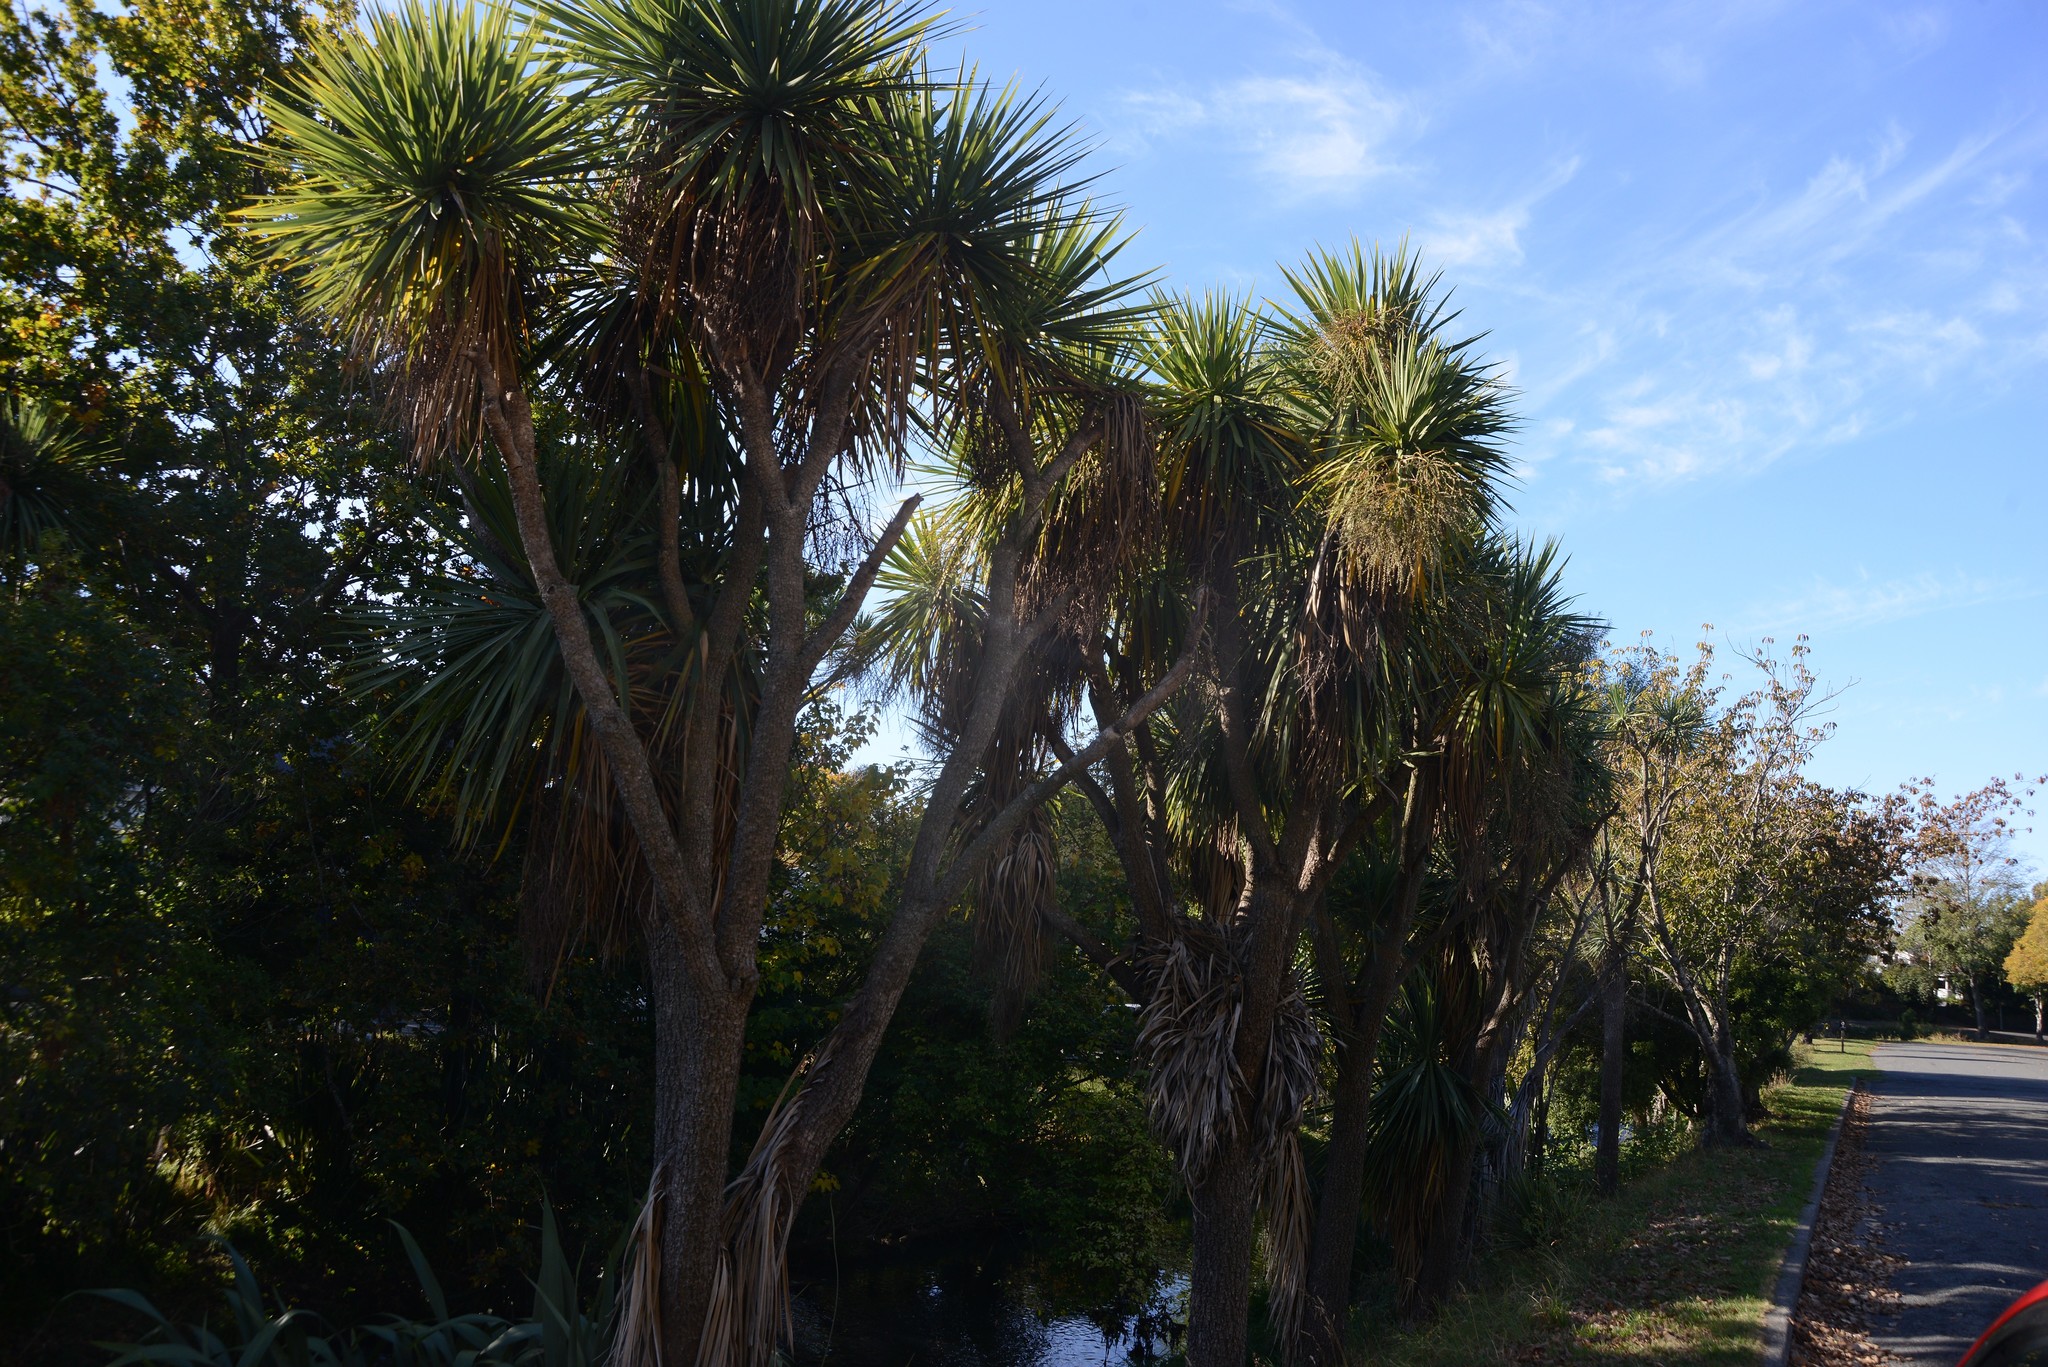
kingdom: Plantae
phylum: Tracheophyta
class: Liliopsida
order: Asparagales
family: Asparagaceae
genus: Cordyline
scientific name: Cordyline australis
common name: Cabbage-palm
